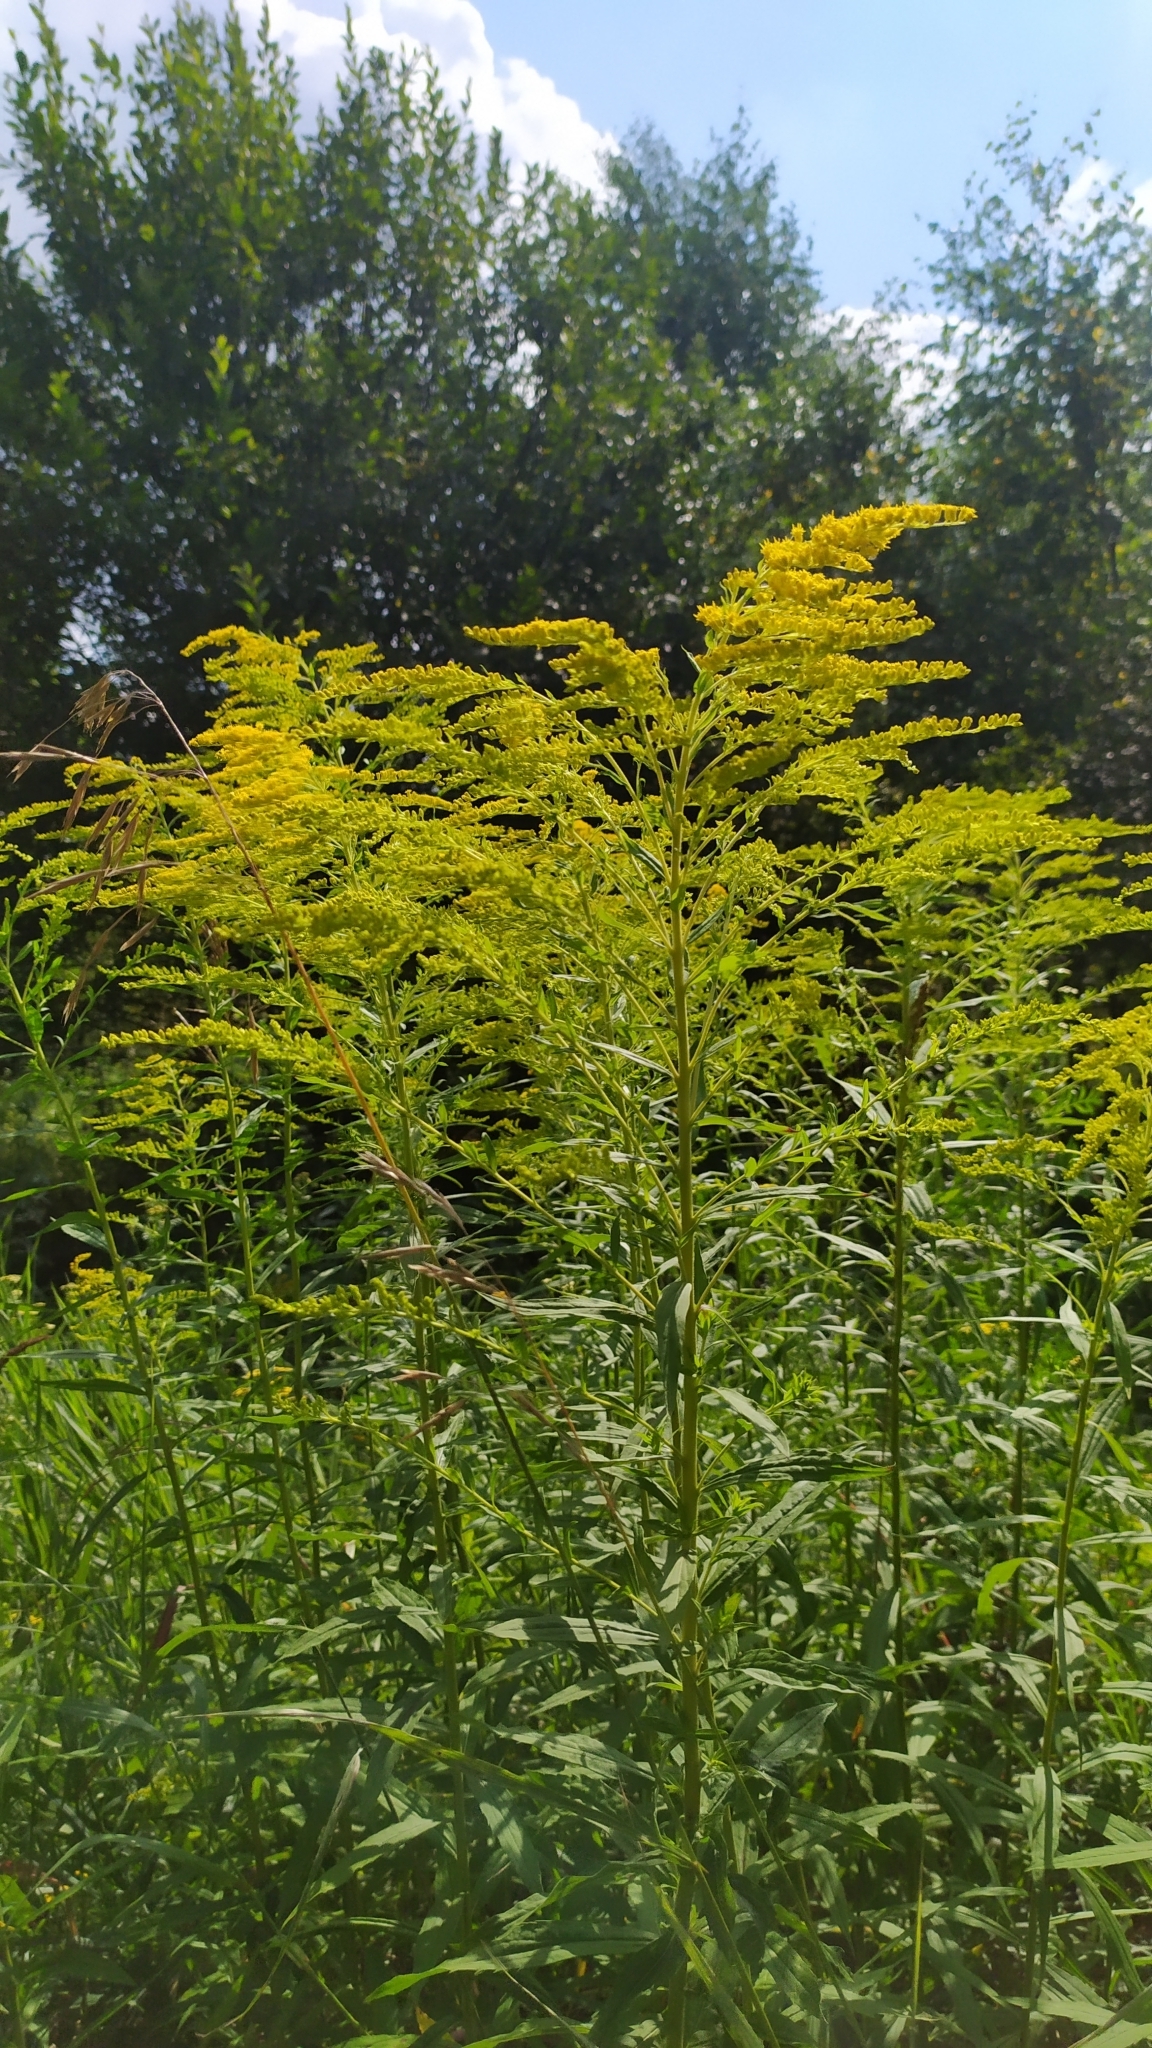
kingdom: Plantae
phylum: Tracheophyta
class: Magnoliopsida
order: Asterales
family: Asteraceae
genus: Solidago
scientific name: Solidago canadensis
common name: Canada goldenrod
